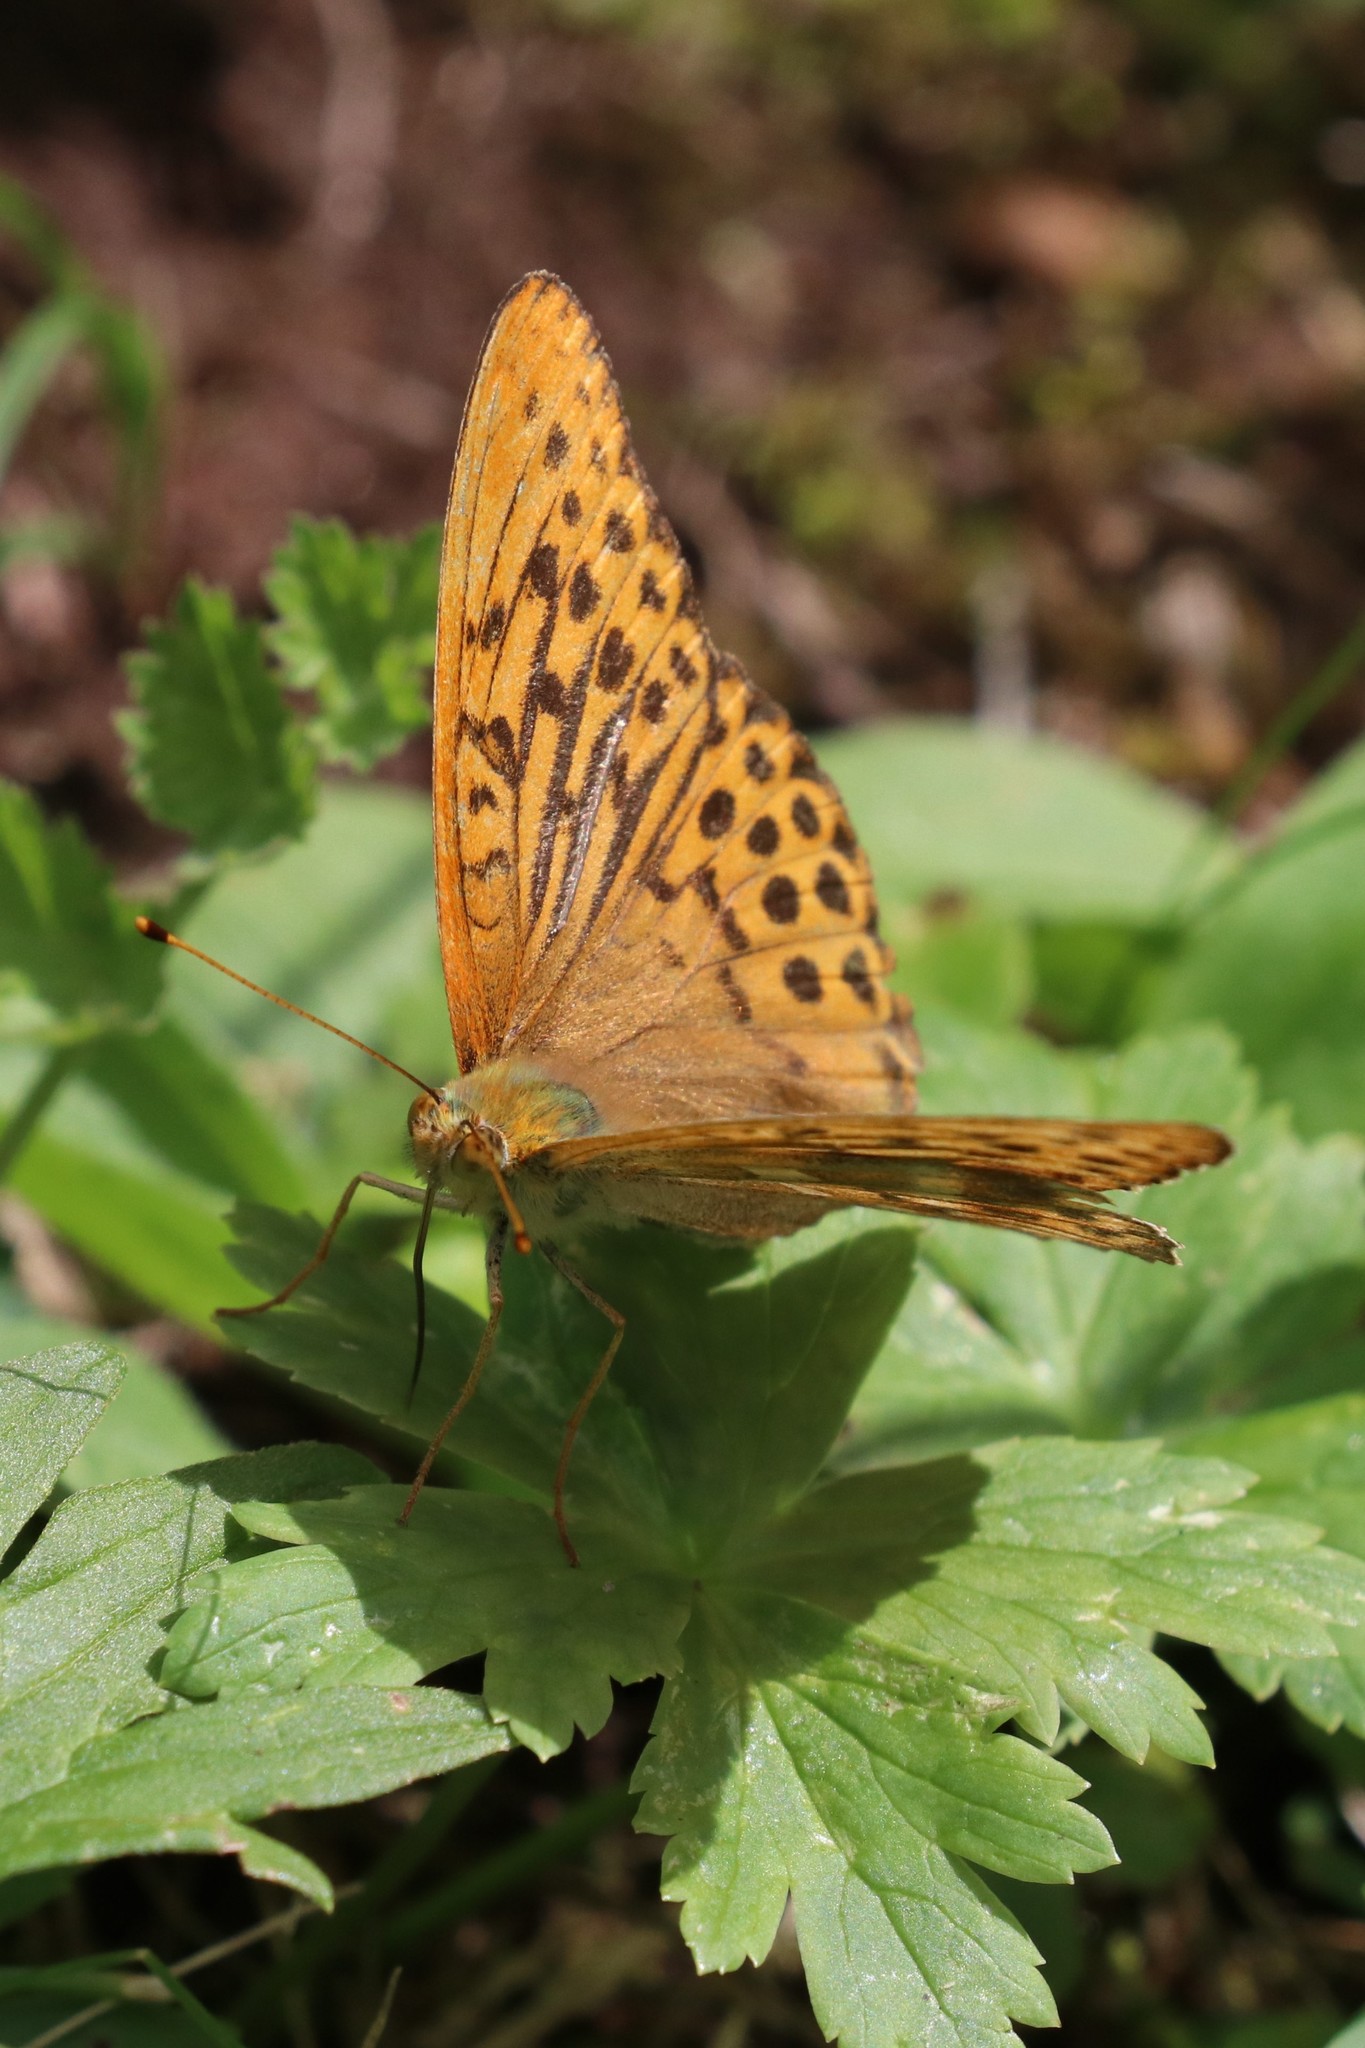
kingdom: Animalia
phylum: Arthropoda
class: Insecta
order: Lepidoptera
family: Nymphalidae
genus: Argynnis
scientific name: Argynnis paphia
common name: Silver-washed fritillary
